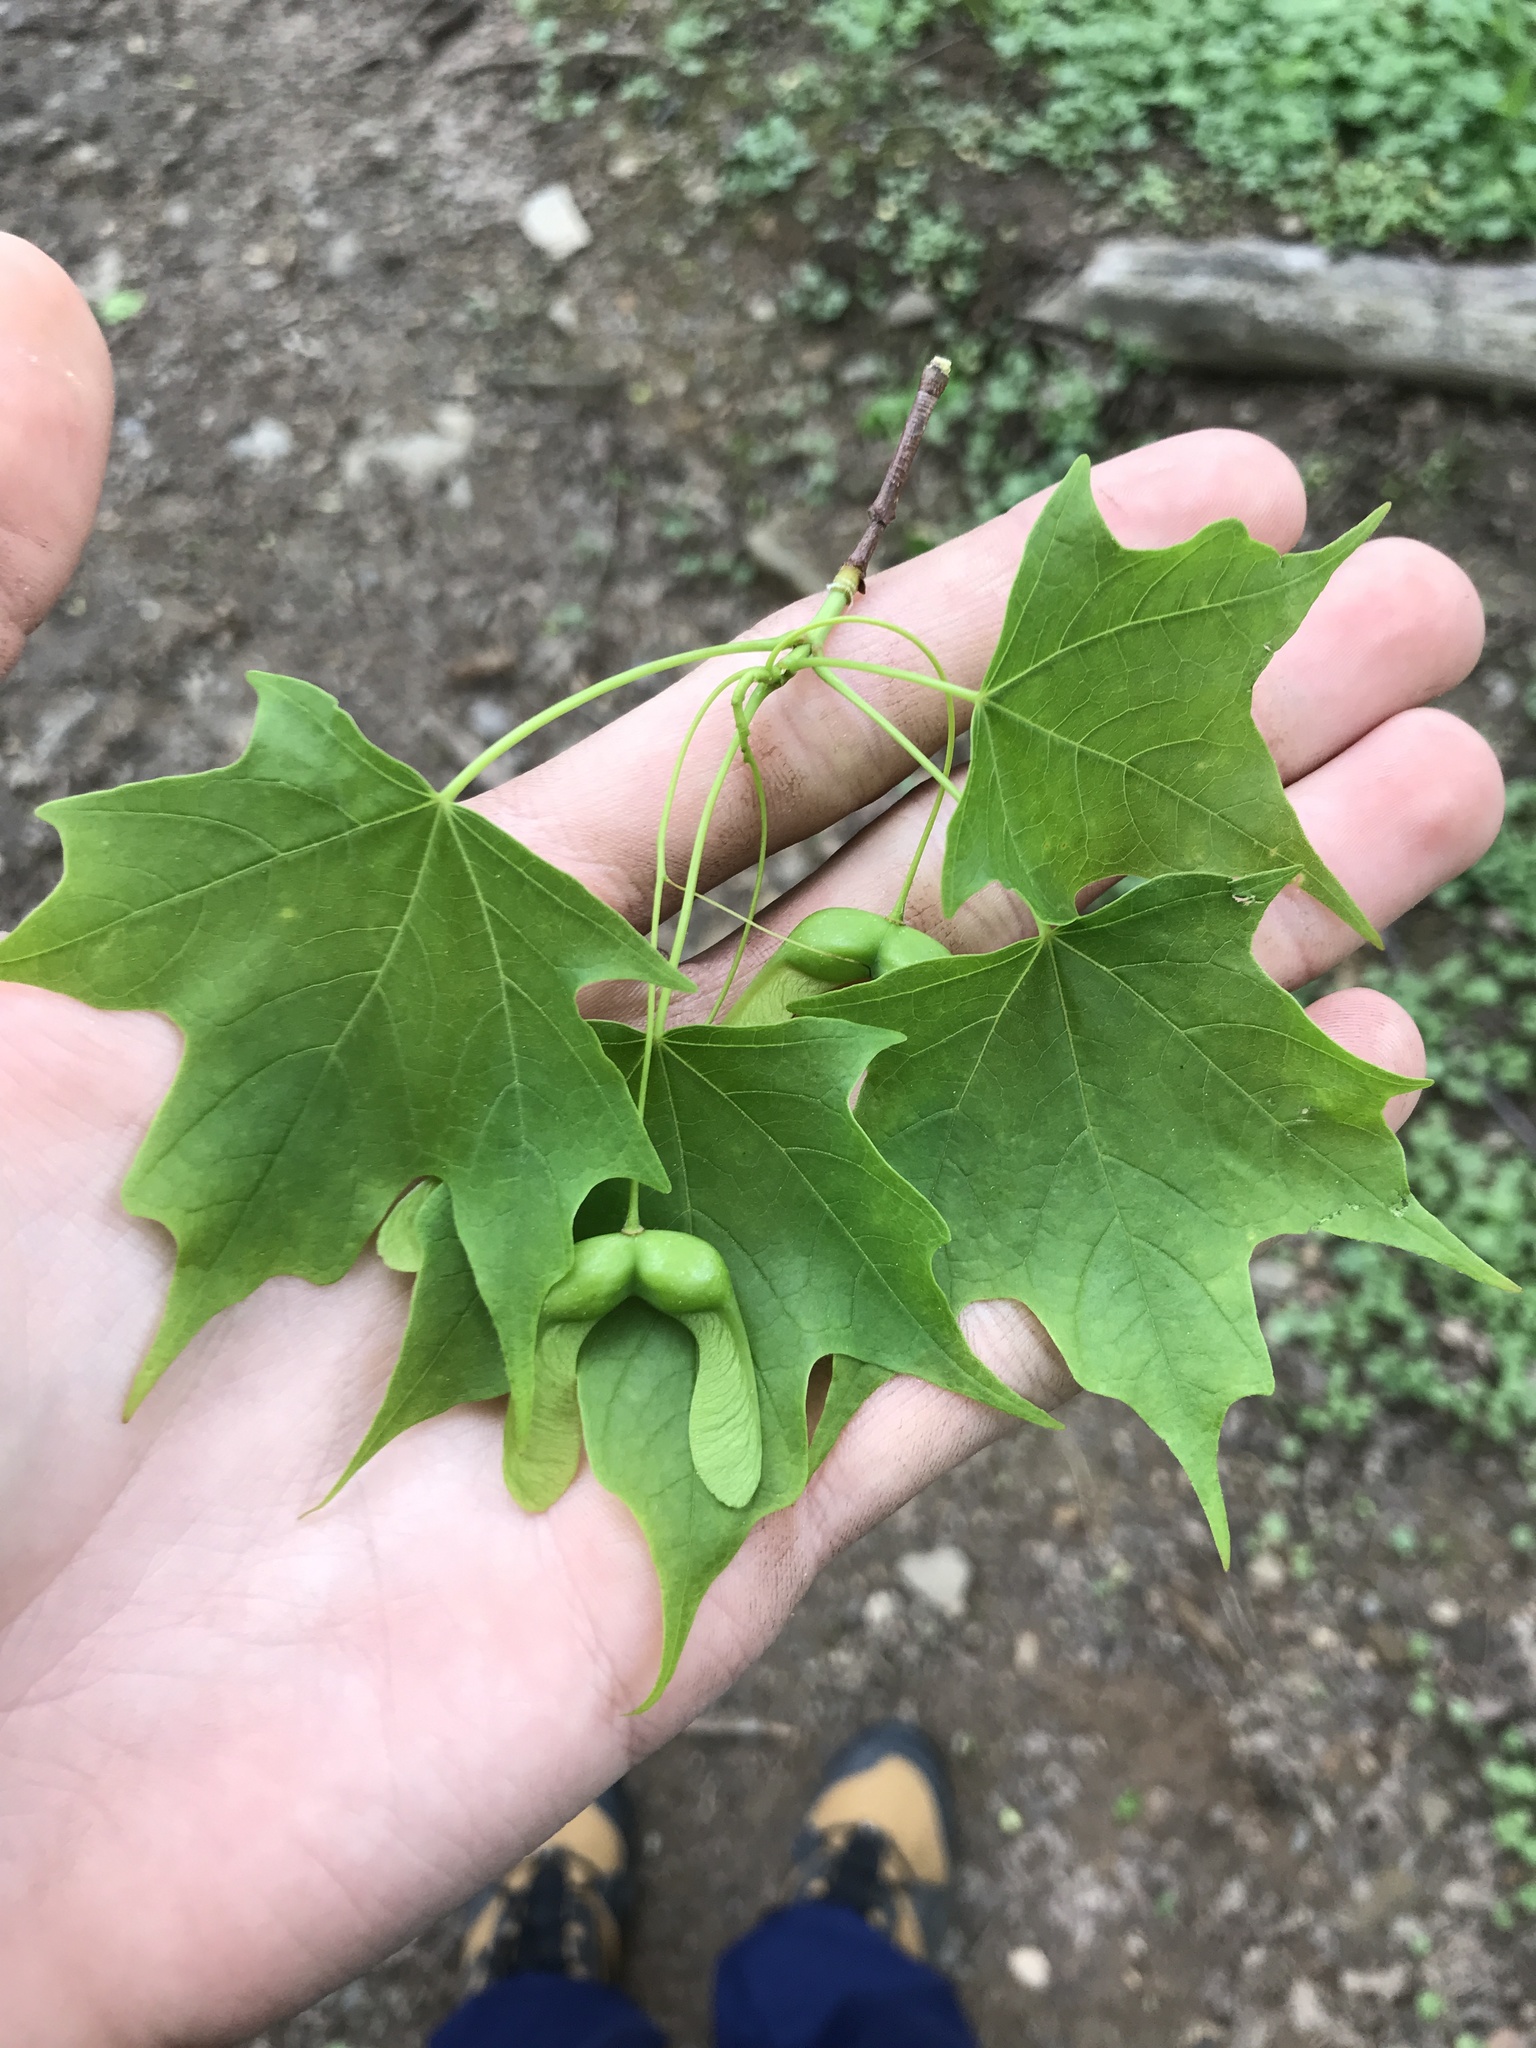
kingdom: Plantae
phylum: Tracheophyta
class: Magnoliopsida
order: Sapindales
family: Sapindaceae
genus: Acer
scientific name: Acer saccharum
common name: Sugar maple
